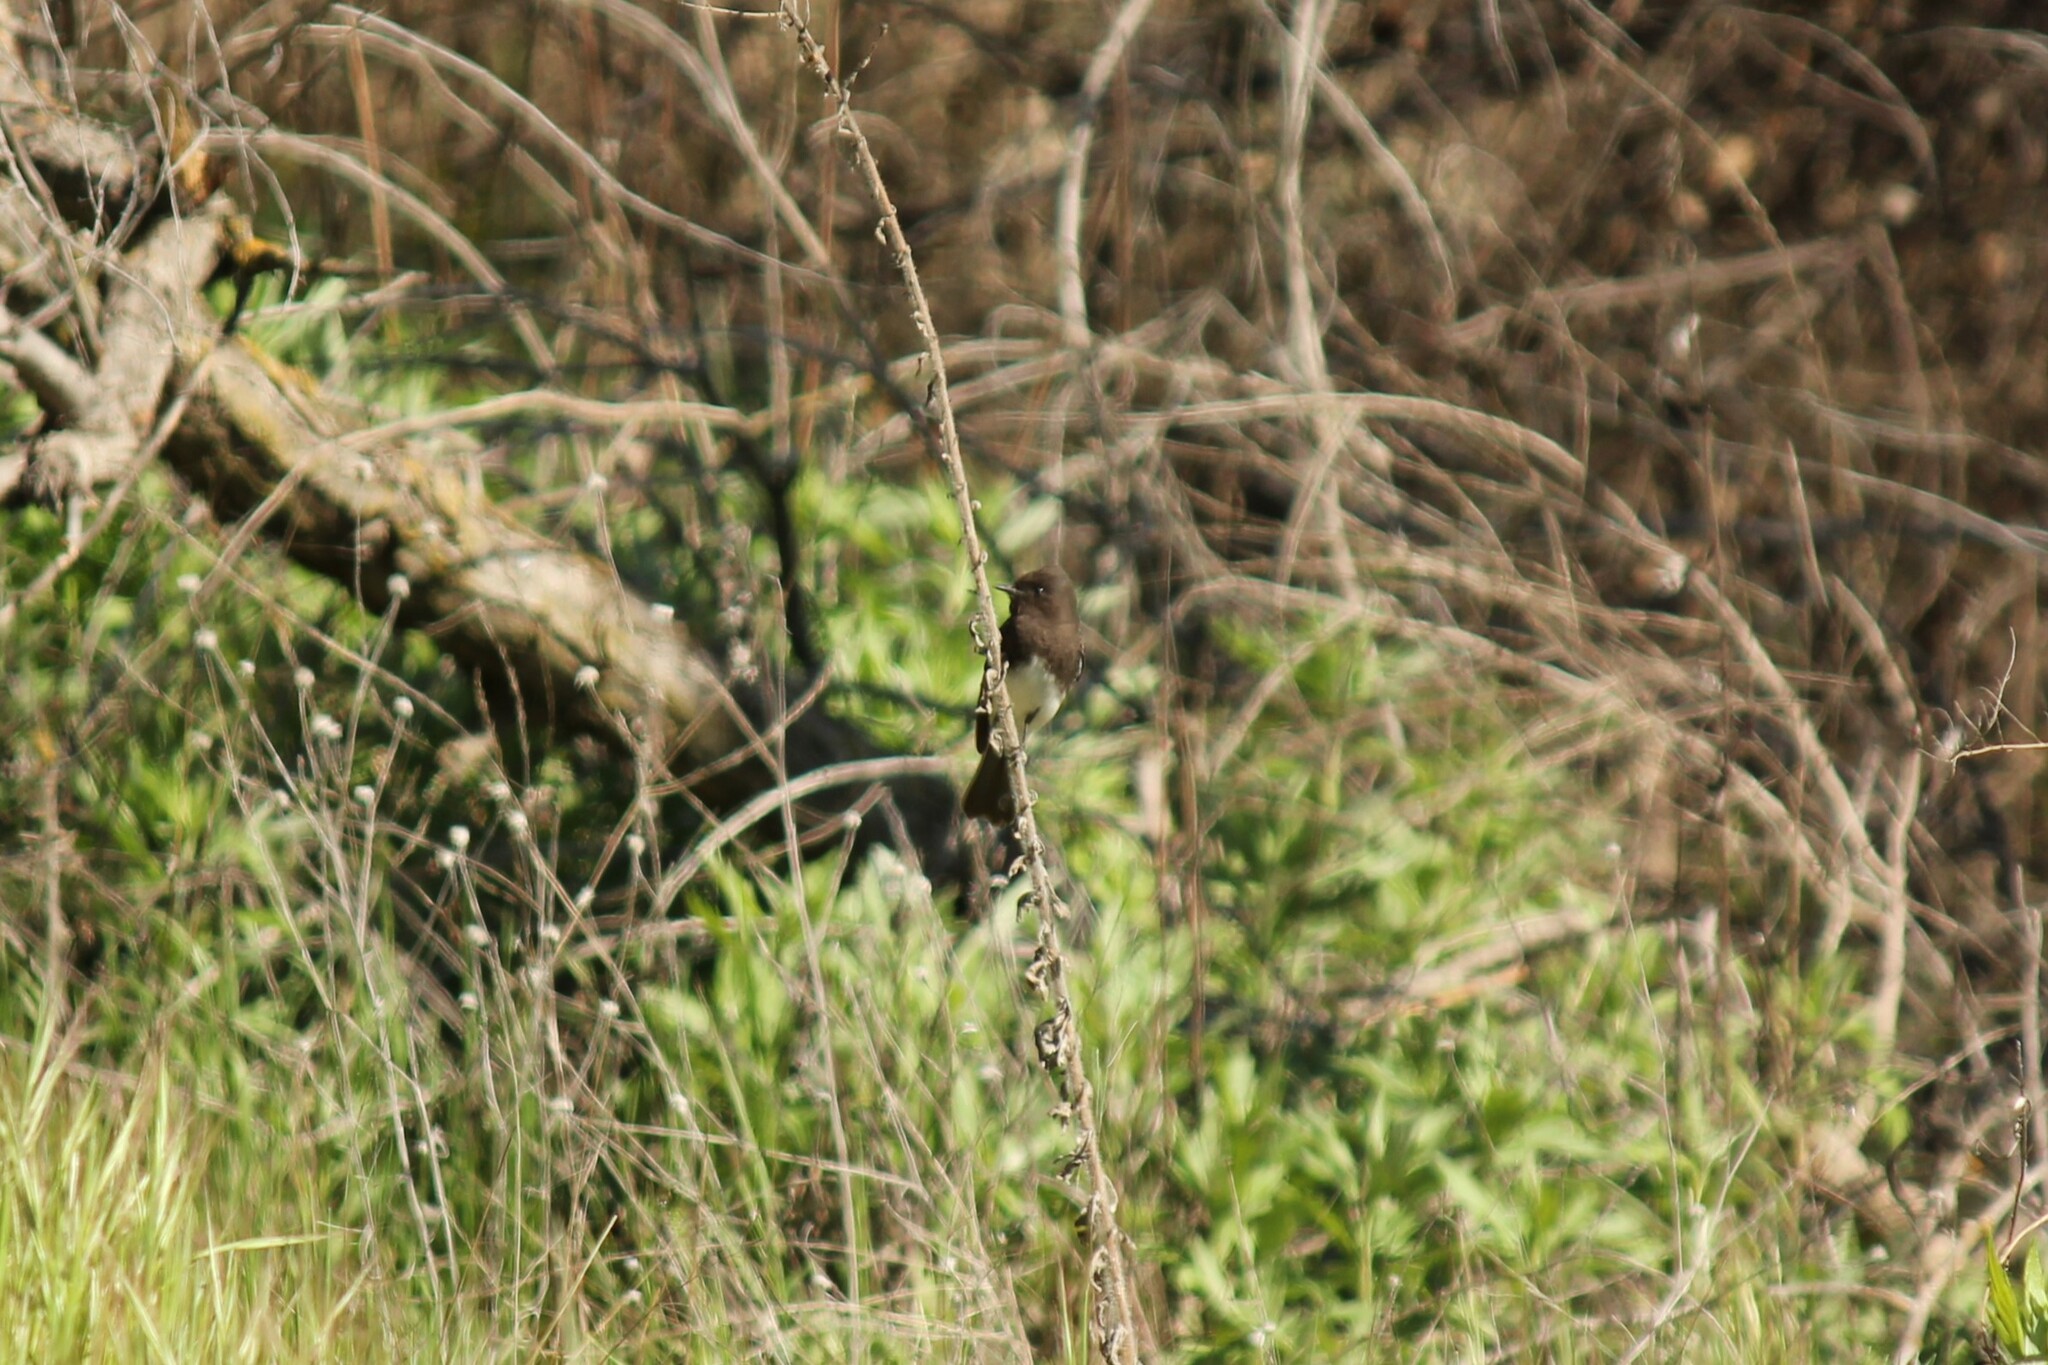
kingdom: Animalia
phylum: Chordata
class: Aves
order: Passeriformes
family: Tyrannidae
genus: Sayornis
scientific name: Sayornis nigricans
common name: Black phoebe
